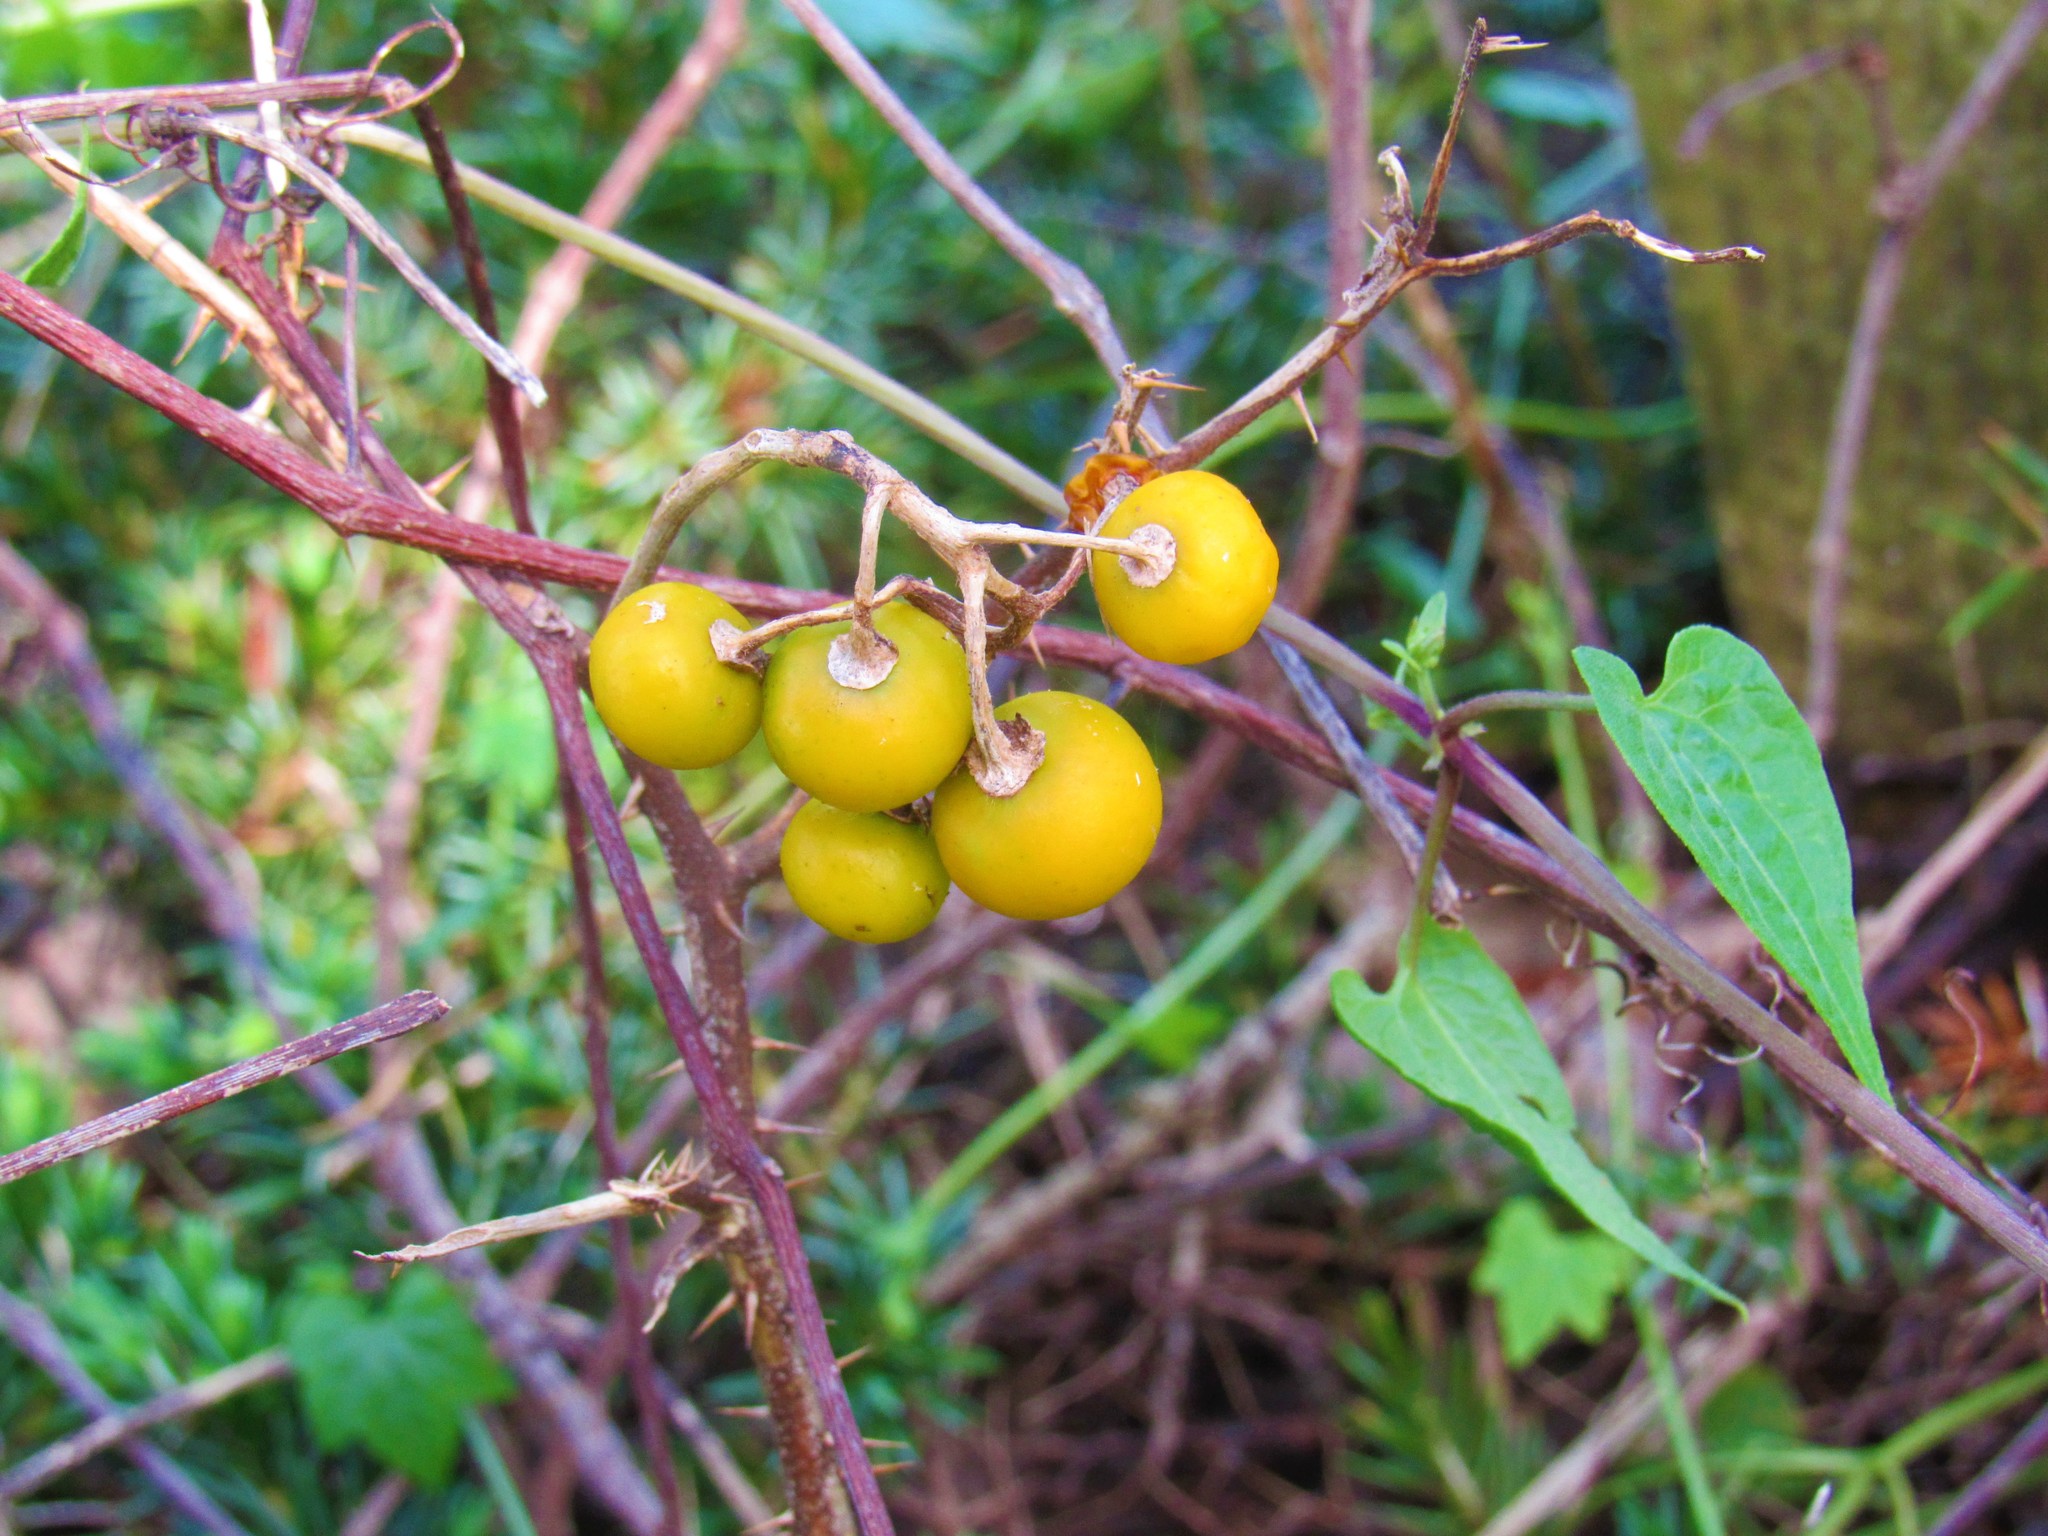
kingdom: Plantae
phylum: Tracheophyta
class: Magnoliopsida
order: Solanales
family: Solanaceae
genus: Solanum
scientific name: Solanum carolinense
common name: Horse-nettle
